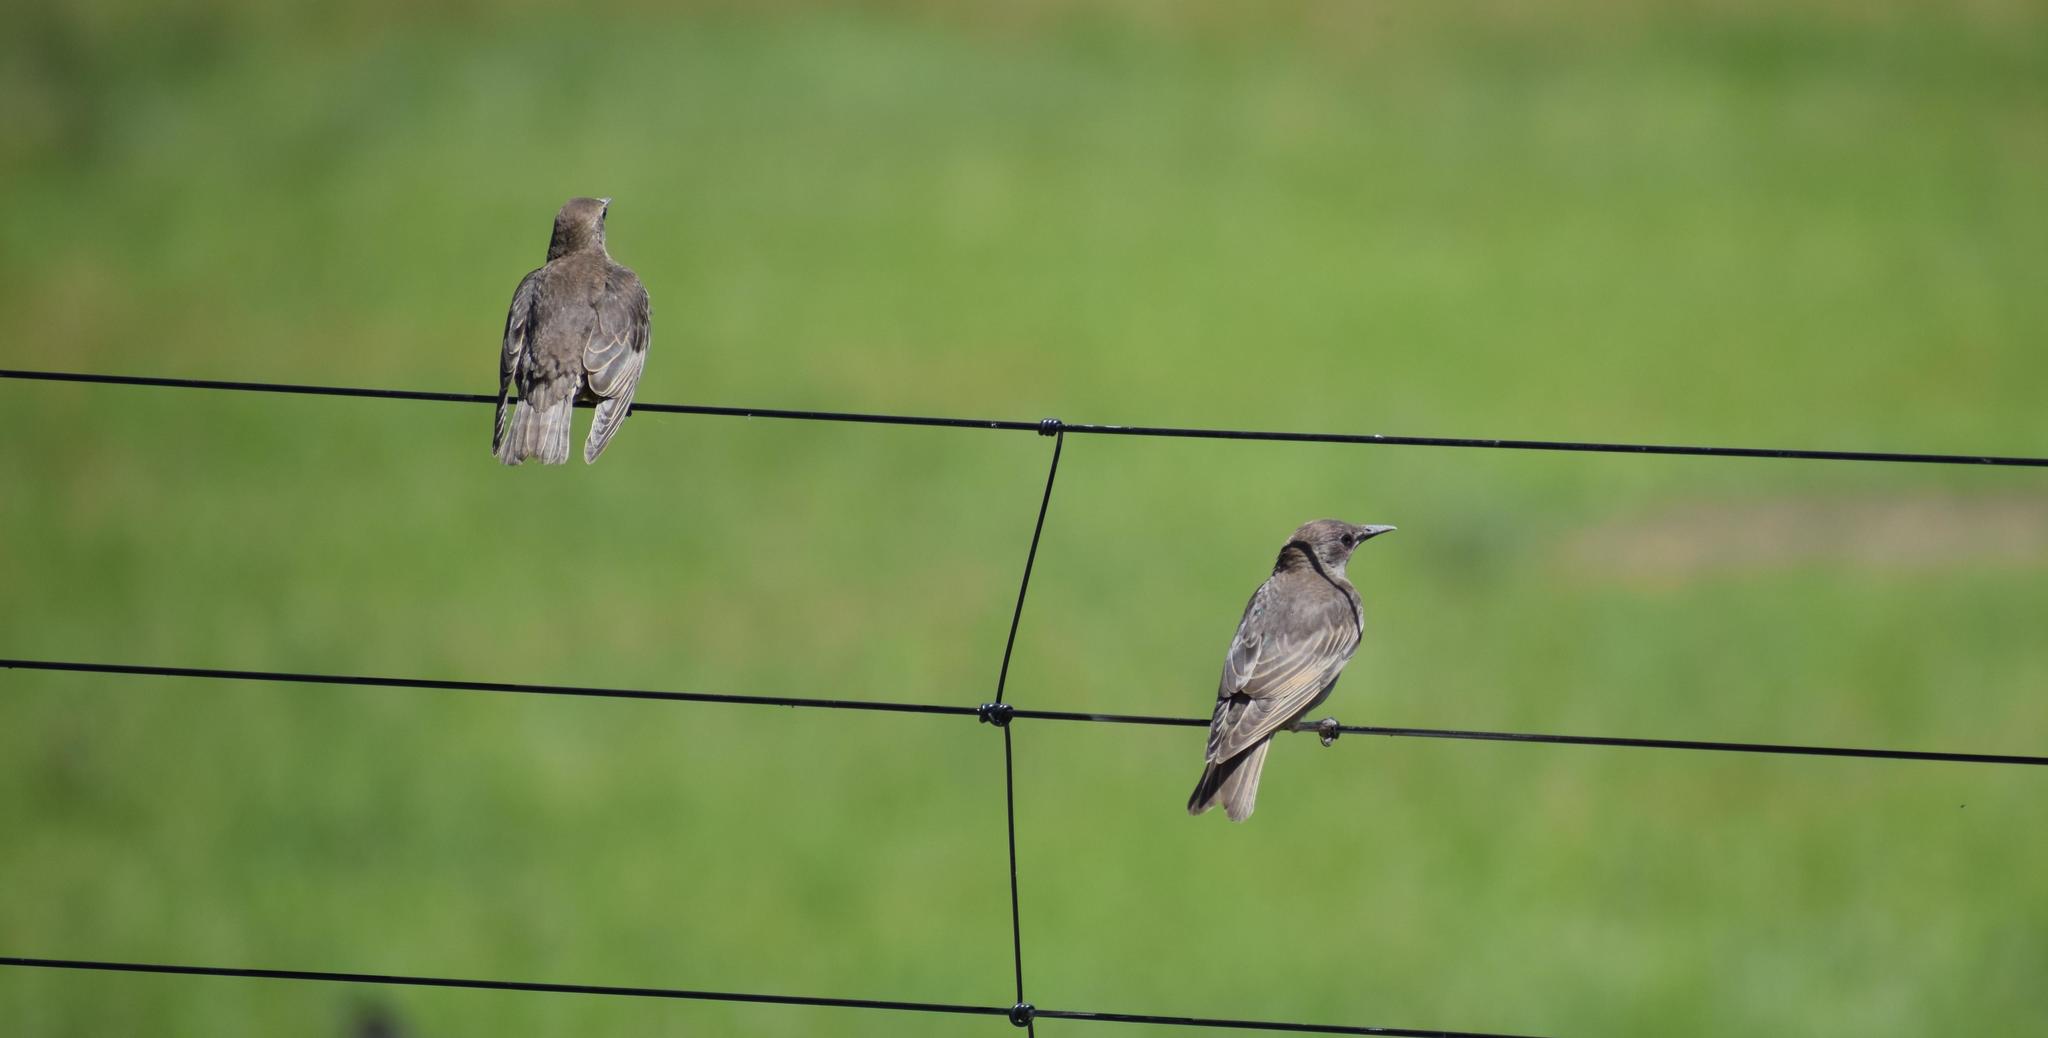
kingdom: Animalia
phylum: Chordata
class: Aves
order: Passeriformes
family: Sturnidae
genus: Sturnus
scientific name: Sturnus vulgaris
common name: Common starling
